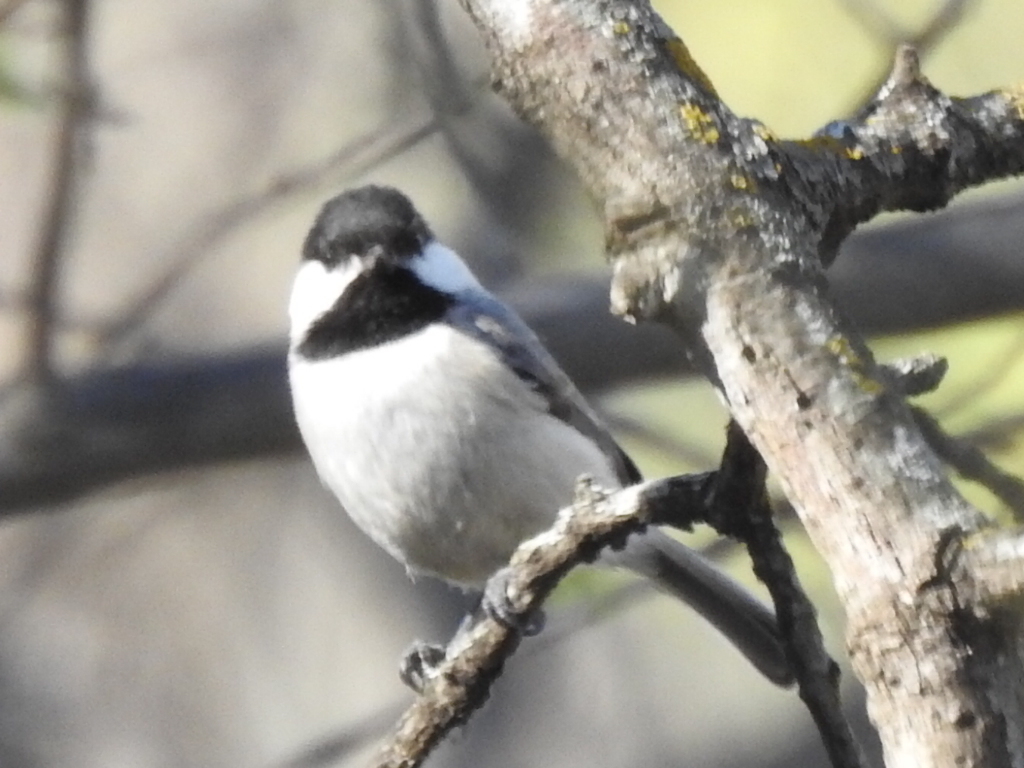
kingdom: Animalia
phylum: Chordata
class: Aves
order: Passeriformes
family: Paridae
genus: Poecile
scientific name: Poecile carolinensis
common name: Carolina chickadee
